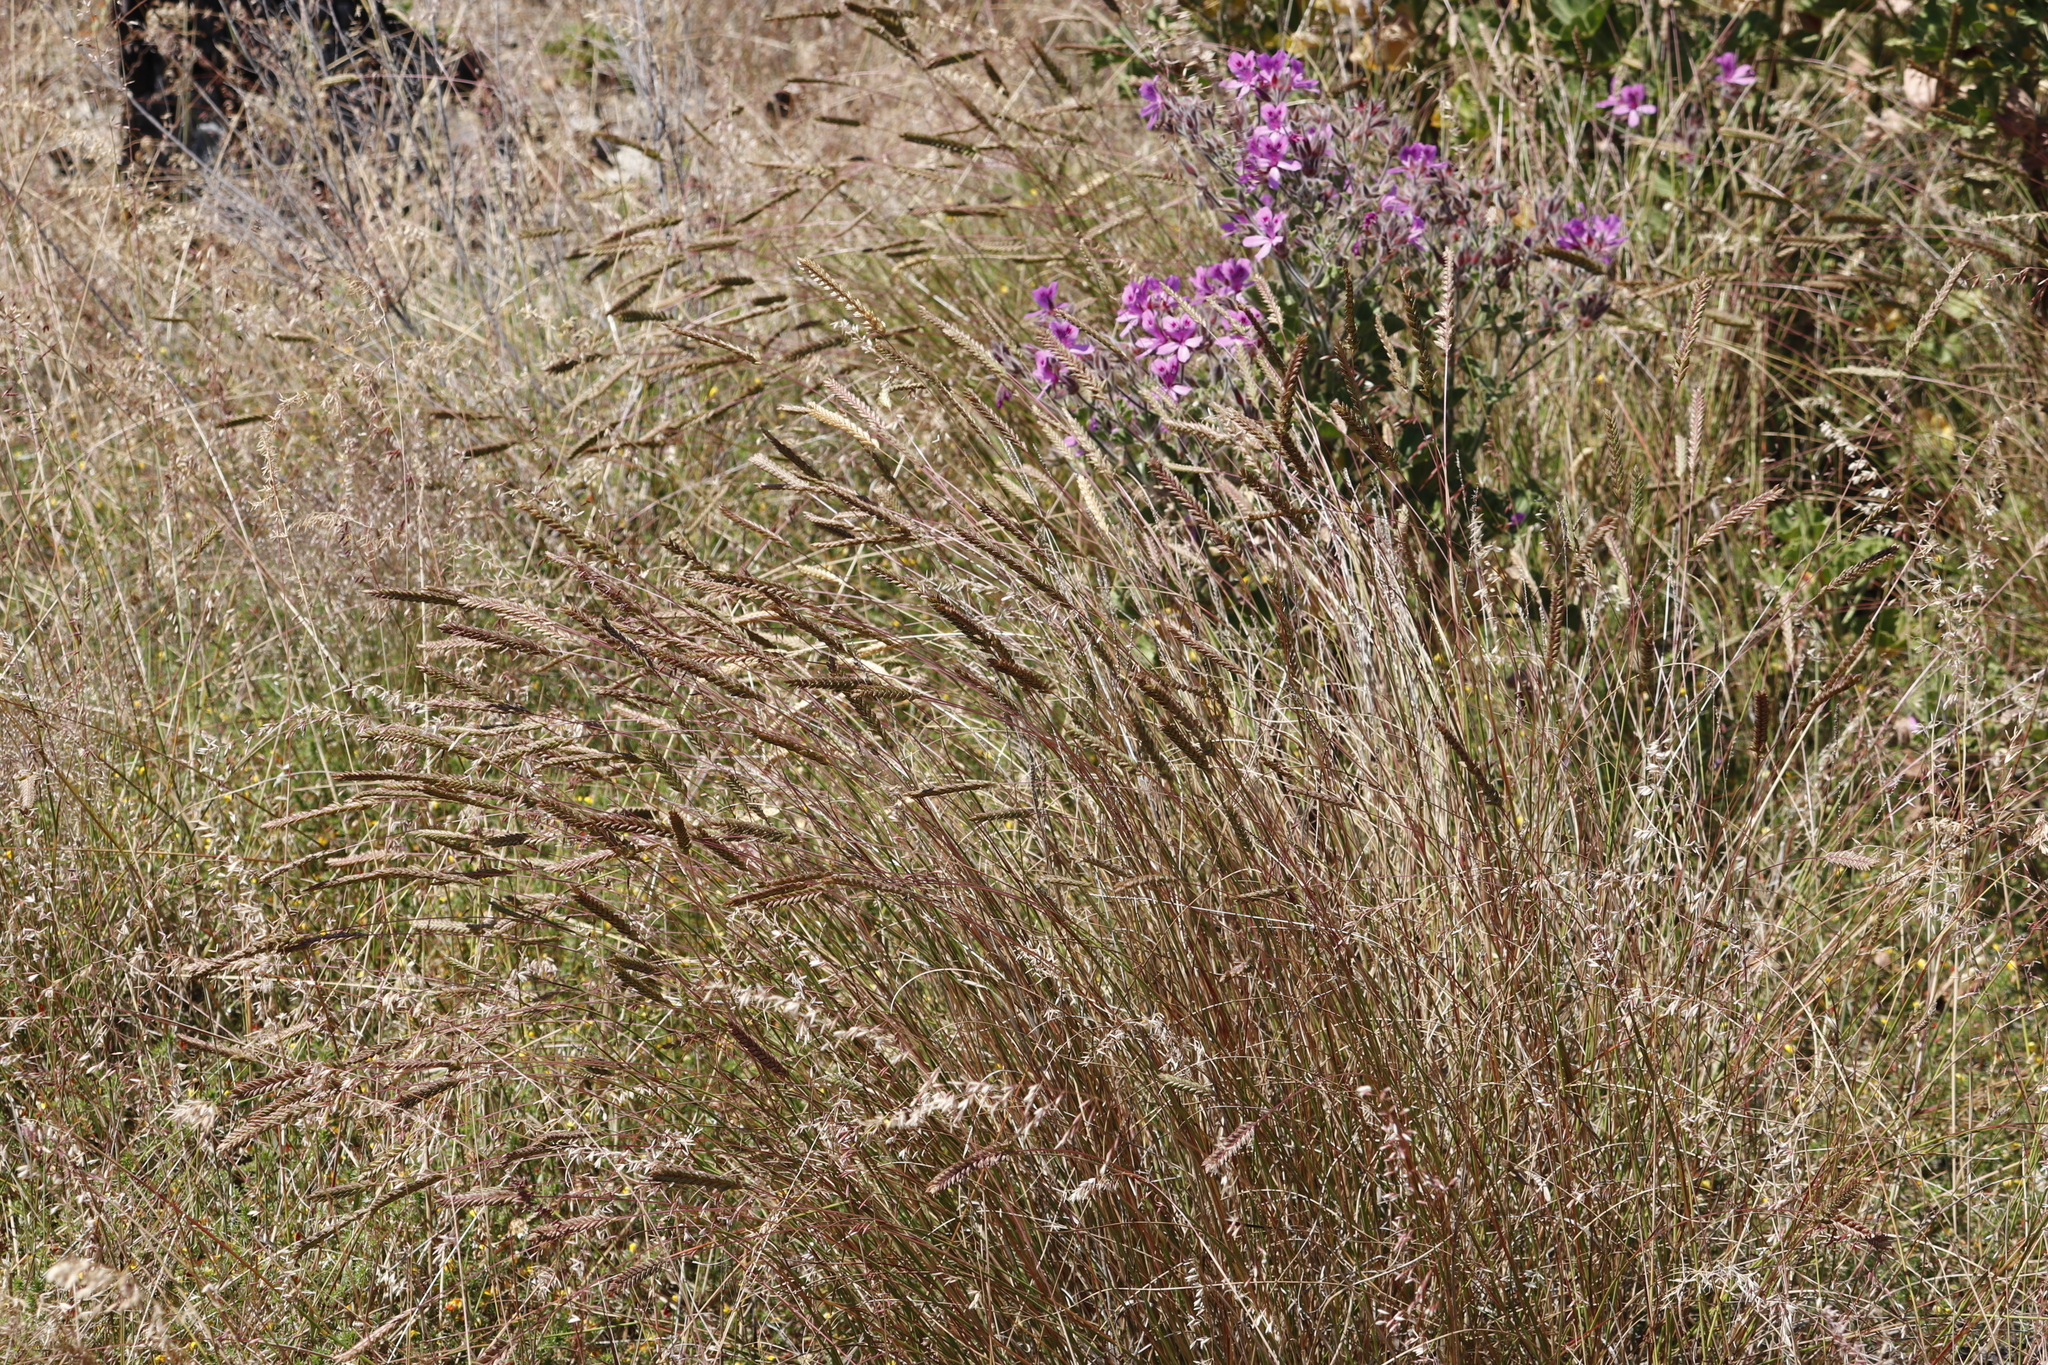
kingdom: Plantae
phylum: Tracheophyta
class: Liliopsida
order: Poales
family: Poaceae
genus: Tribolium
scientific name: Tribolium uniolae
